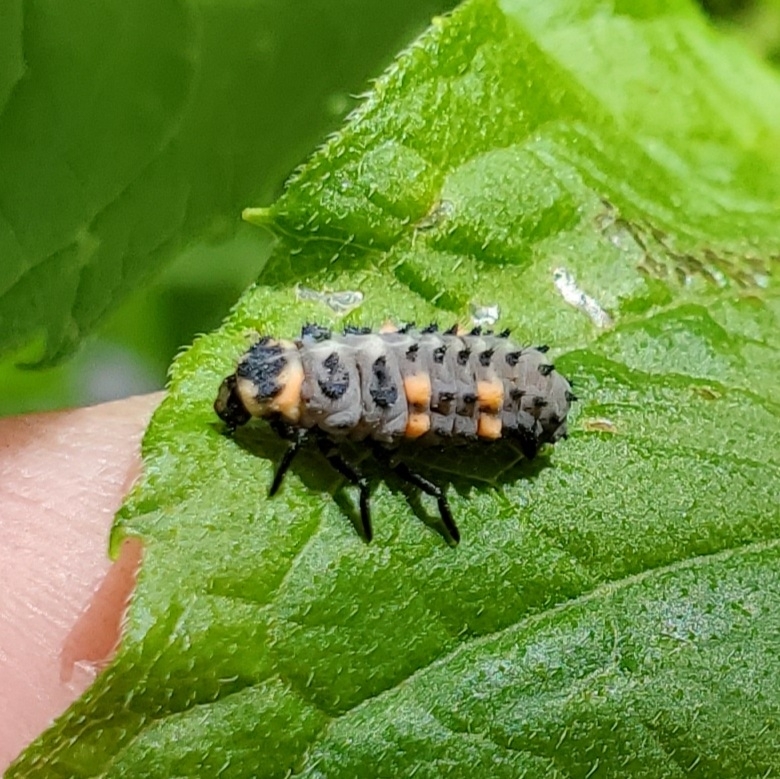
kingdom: Animalia
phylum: Arthropoda
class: Insecta
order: Coleoptera
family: Coccinellidae
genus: Coccinella
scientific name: Coccinella septempunctata
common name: Sevenspotted lady beetle
